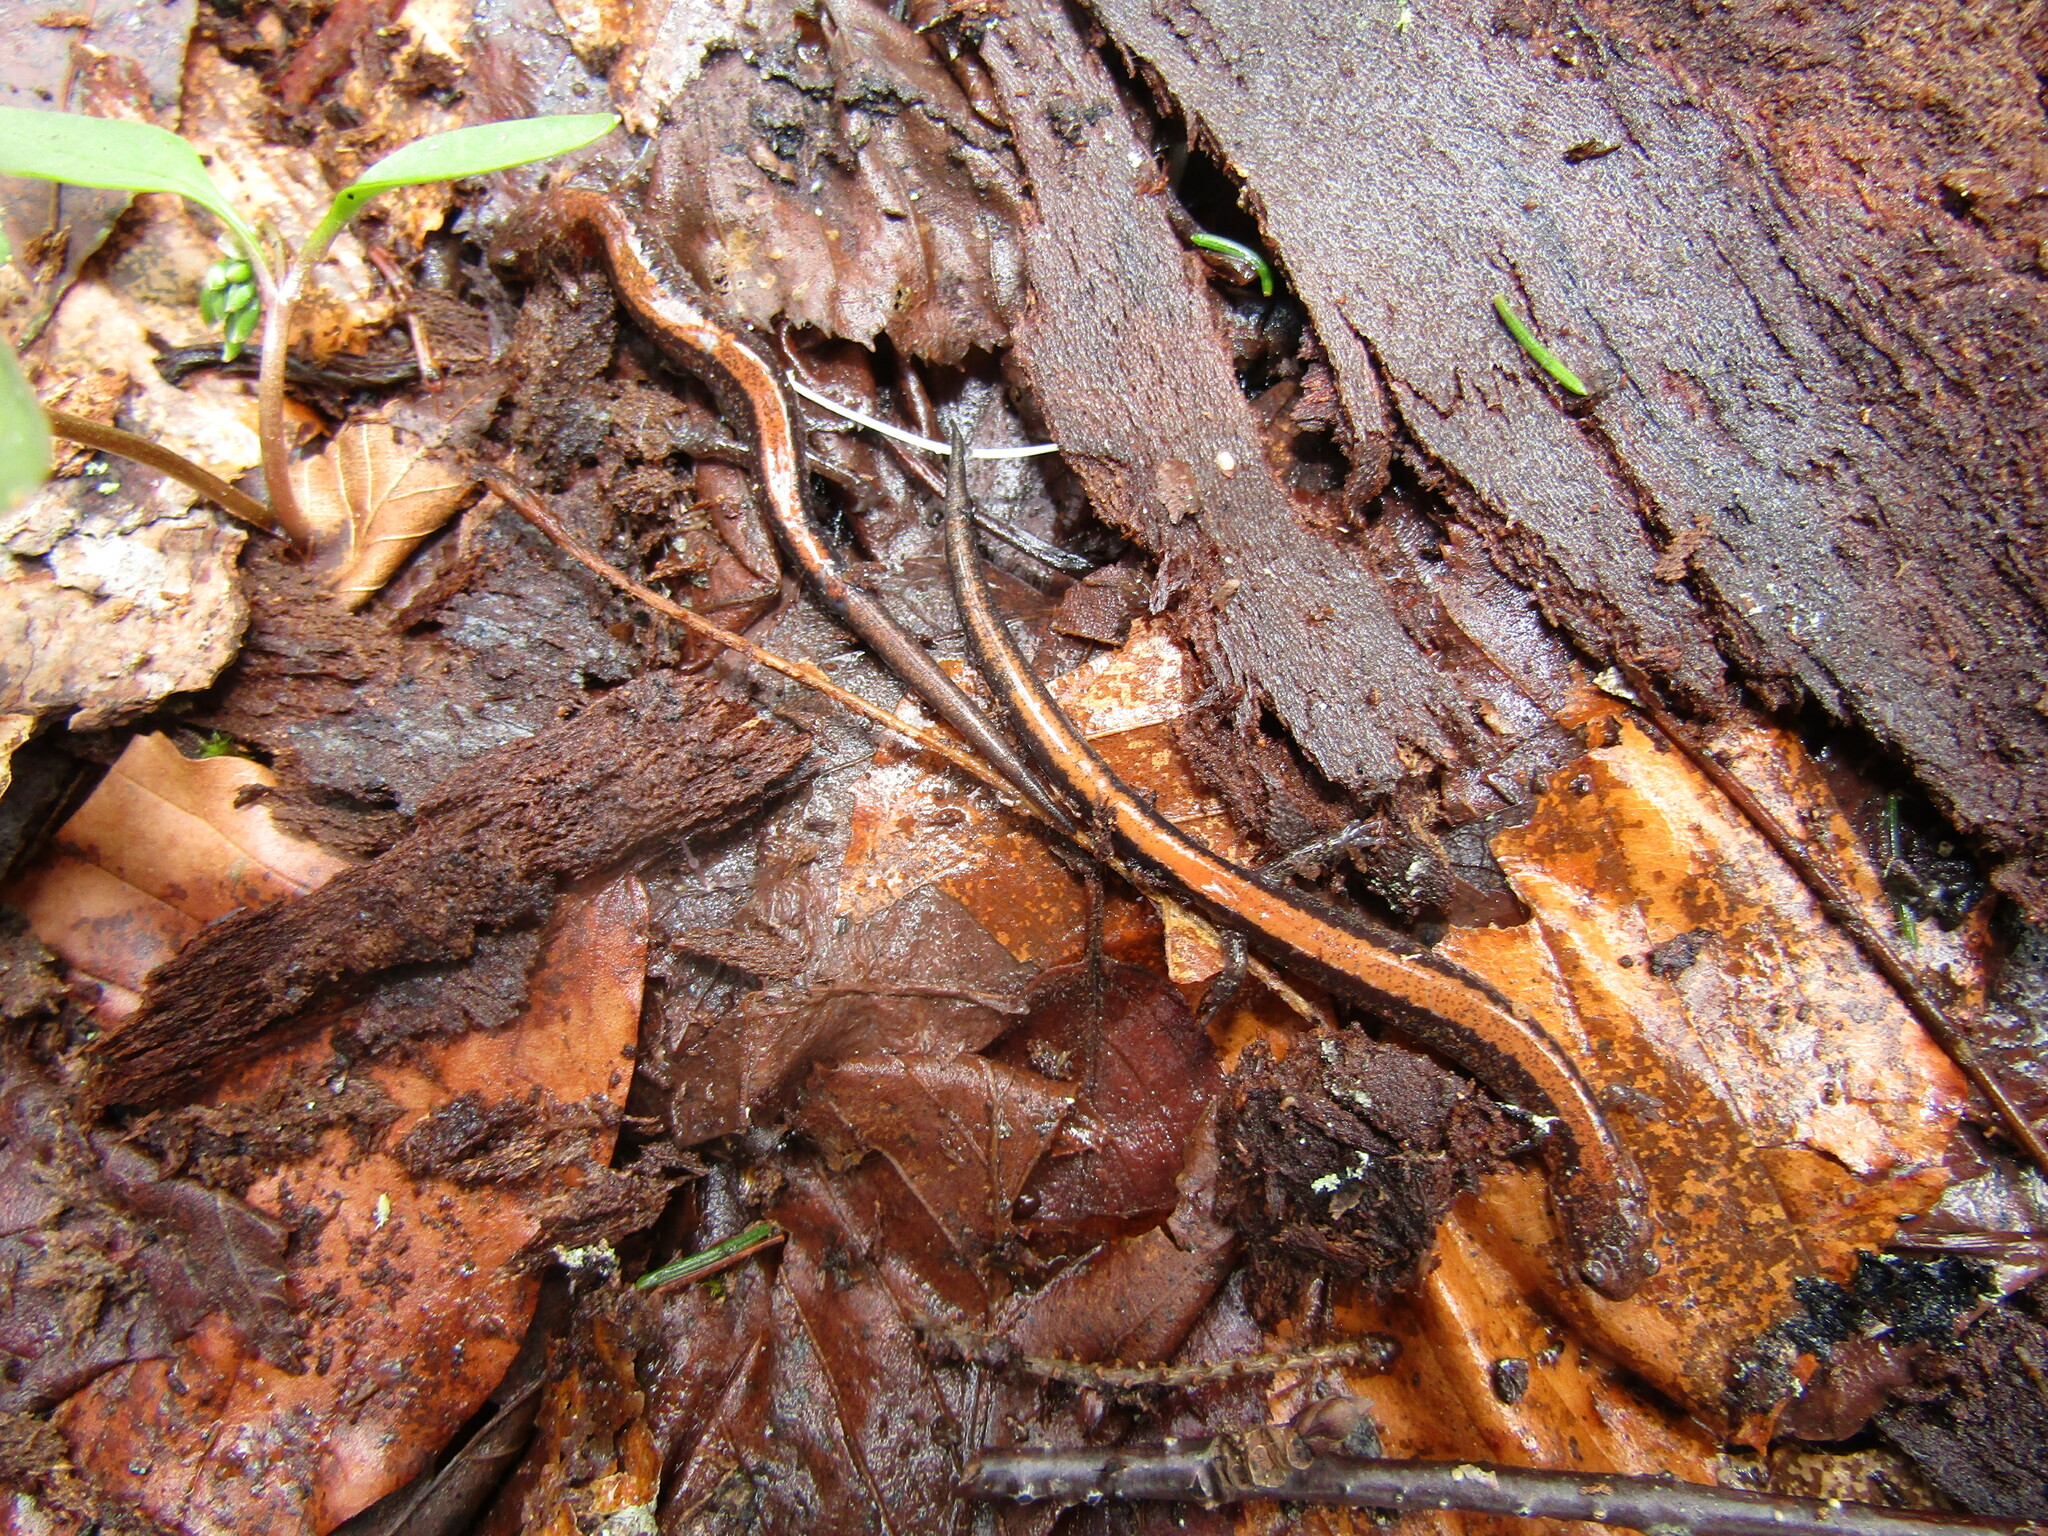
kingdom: Animalia
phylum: Chordata
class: Amphibia
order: Caudata
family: Plethodontidae
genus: Plethodon
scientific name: Plethodon cinereus
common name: Redback salamander
